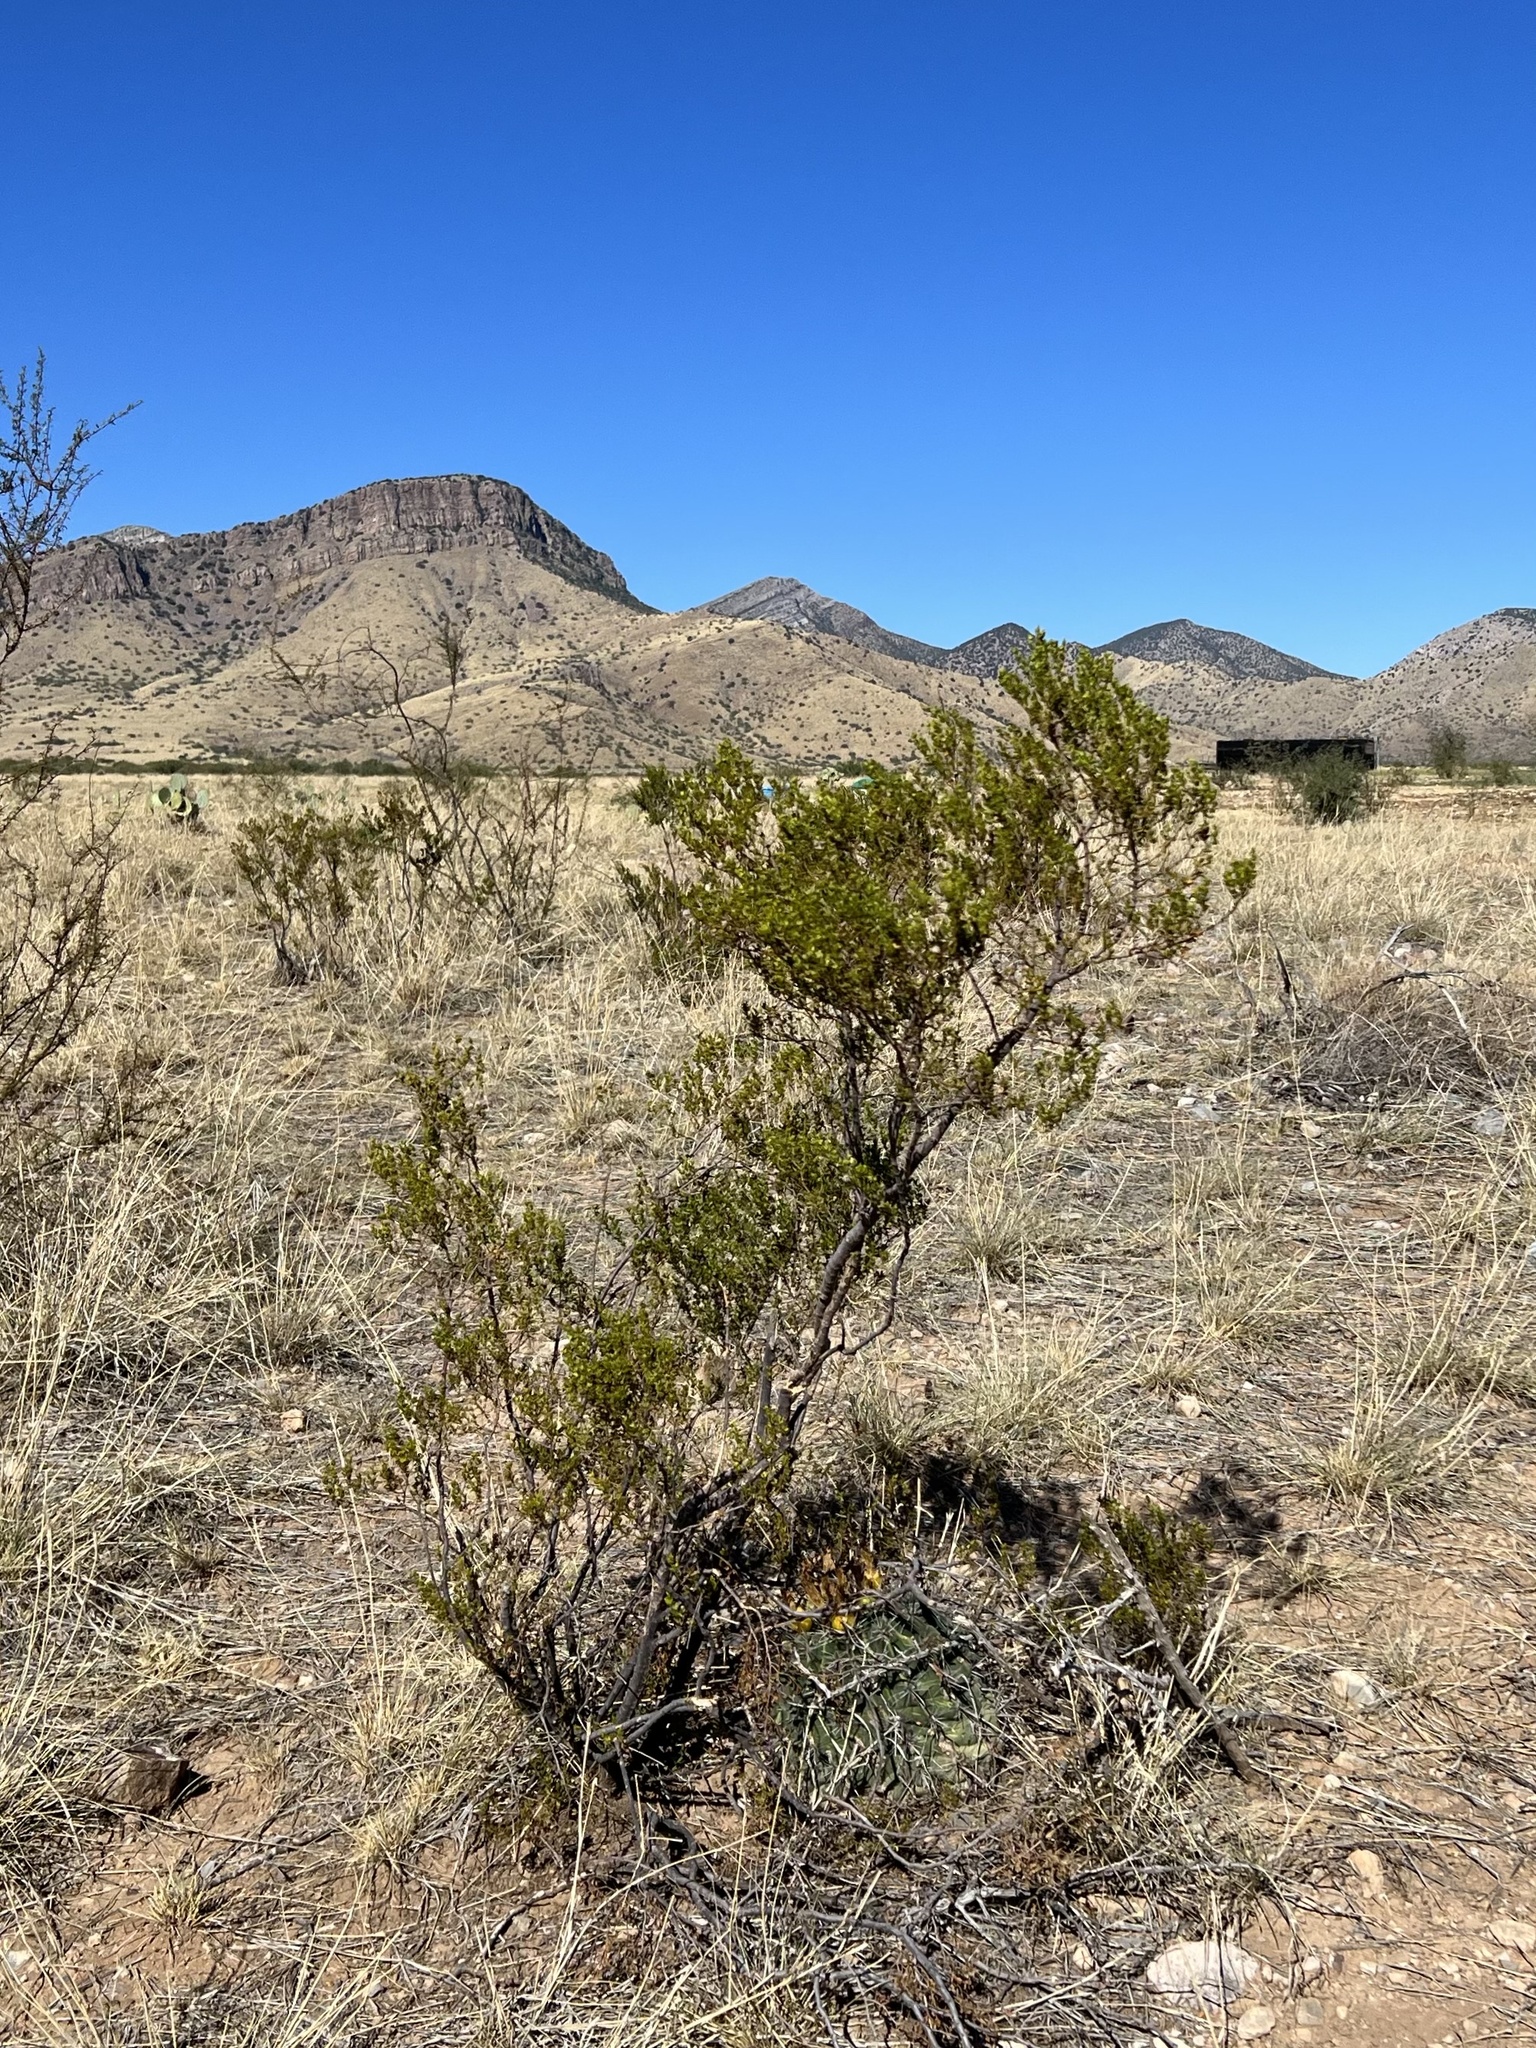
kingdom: Plantae
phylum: Tracheophyta
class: Magnoliopsida
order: Zygophyllales
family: Zygophyllaceae
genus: Larrea
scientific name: Larrea tridentata
